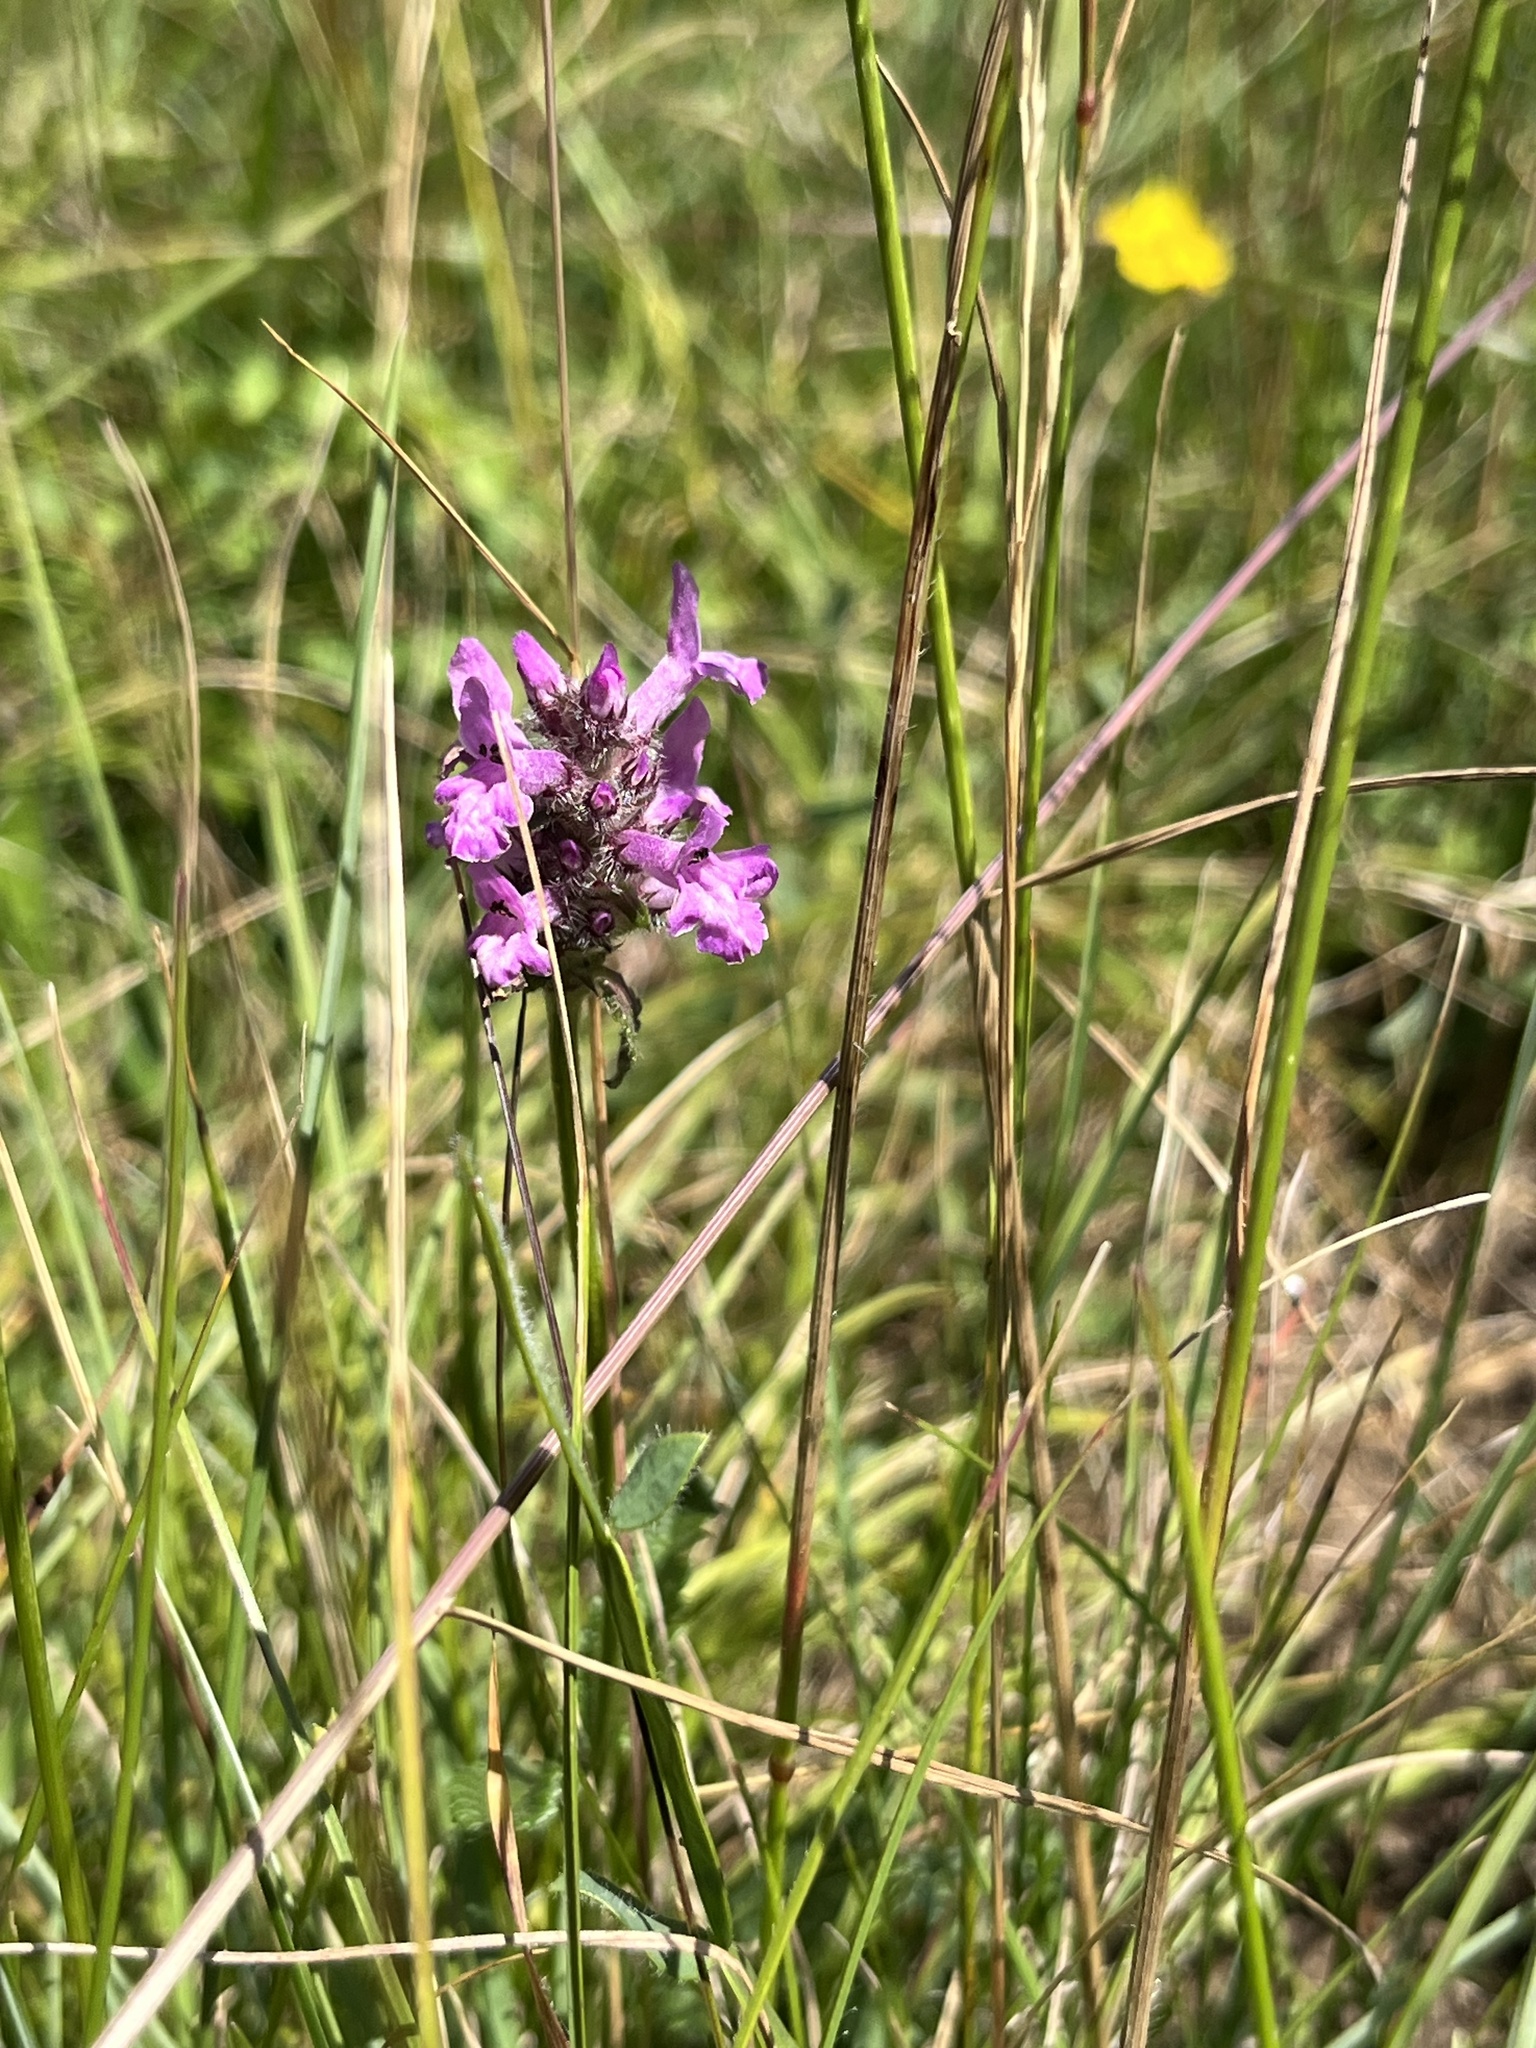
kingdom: Plantae
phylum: Tracheophyta
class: Magnoliopsida
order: Lamiales
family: Lamiaceae
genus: Betonica
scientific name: Betonica officinalis
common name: Bishop's-wort
